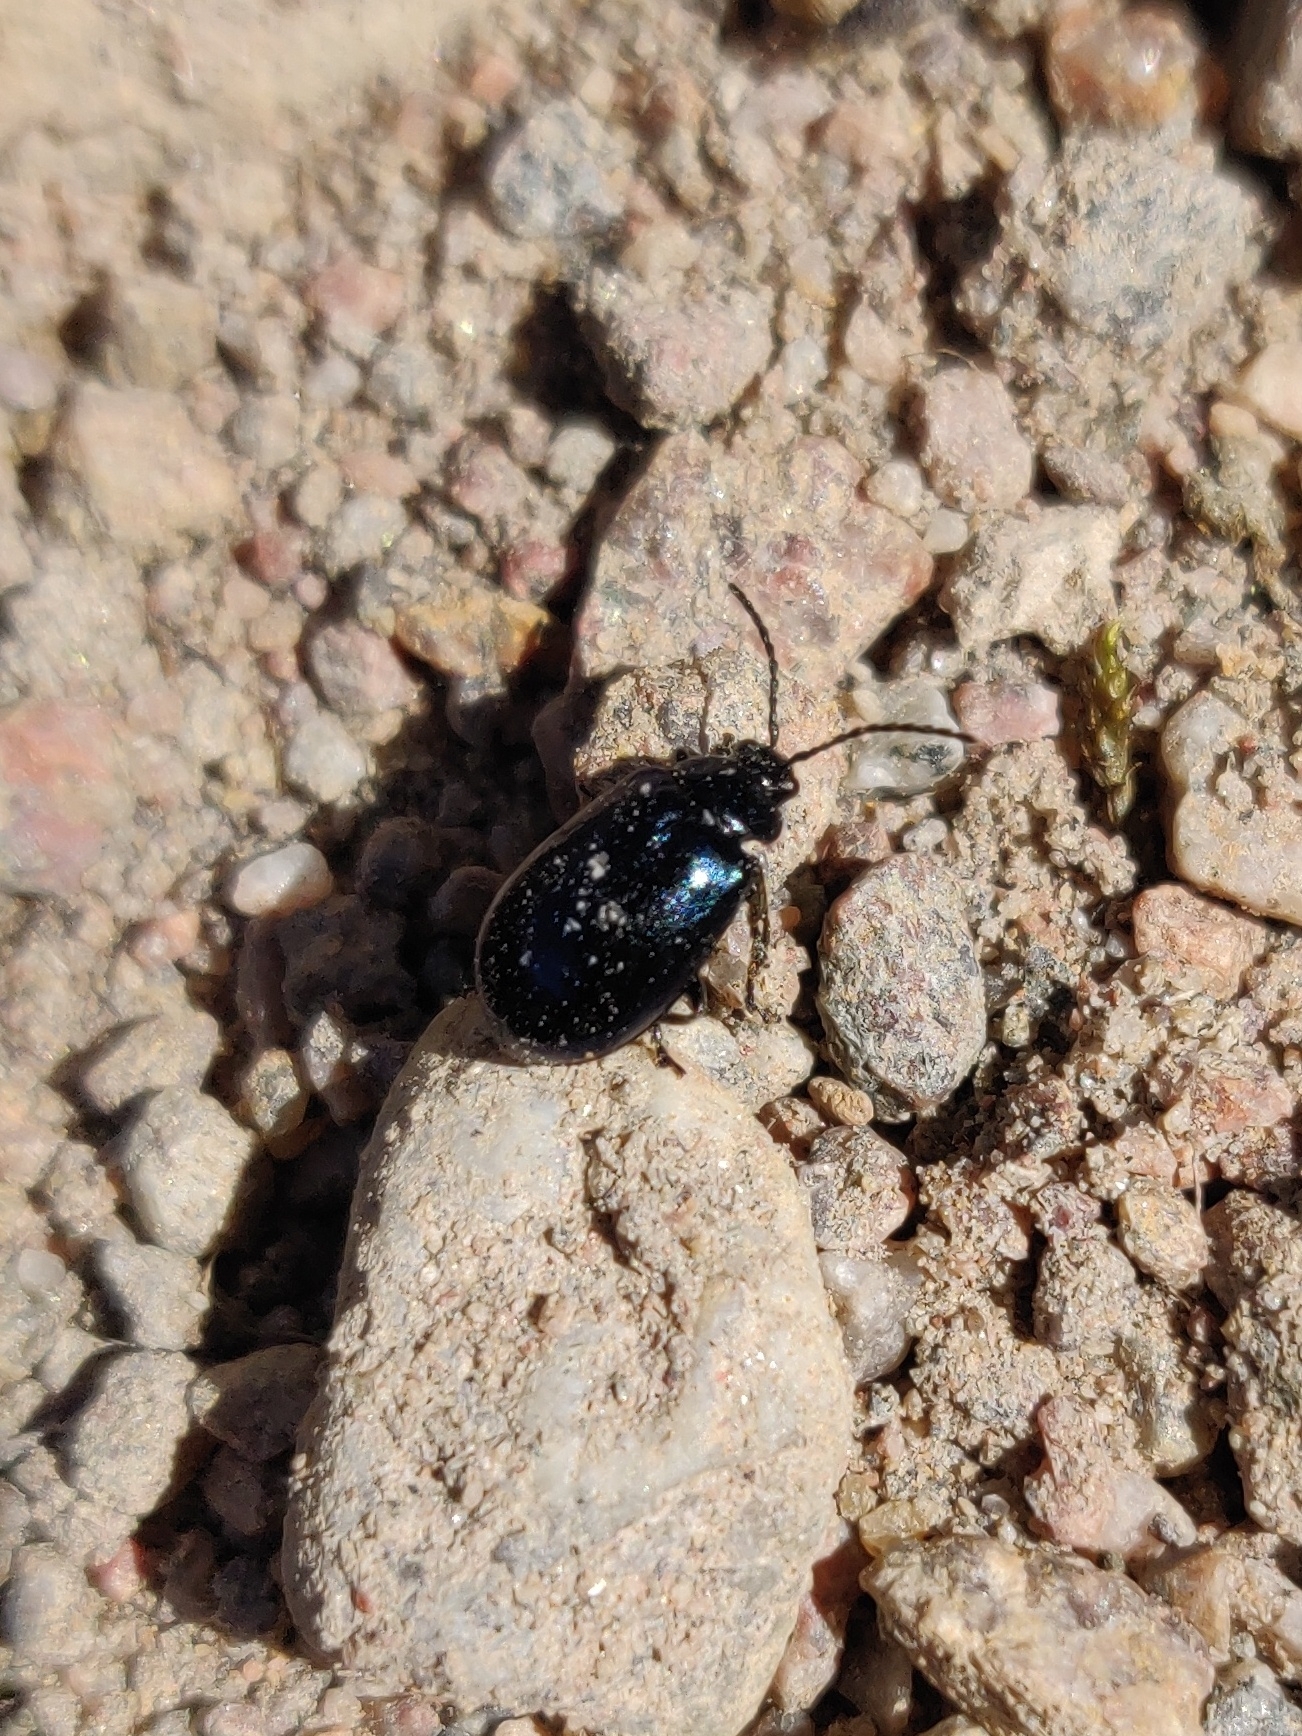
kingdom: Animalia
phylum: Arthropoda
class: Insecta
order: Coleoptera
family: Chrysomelidae
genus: Agelastica
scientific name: Agelastica alni
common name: Alder leaf beetle
